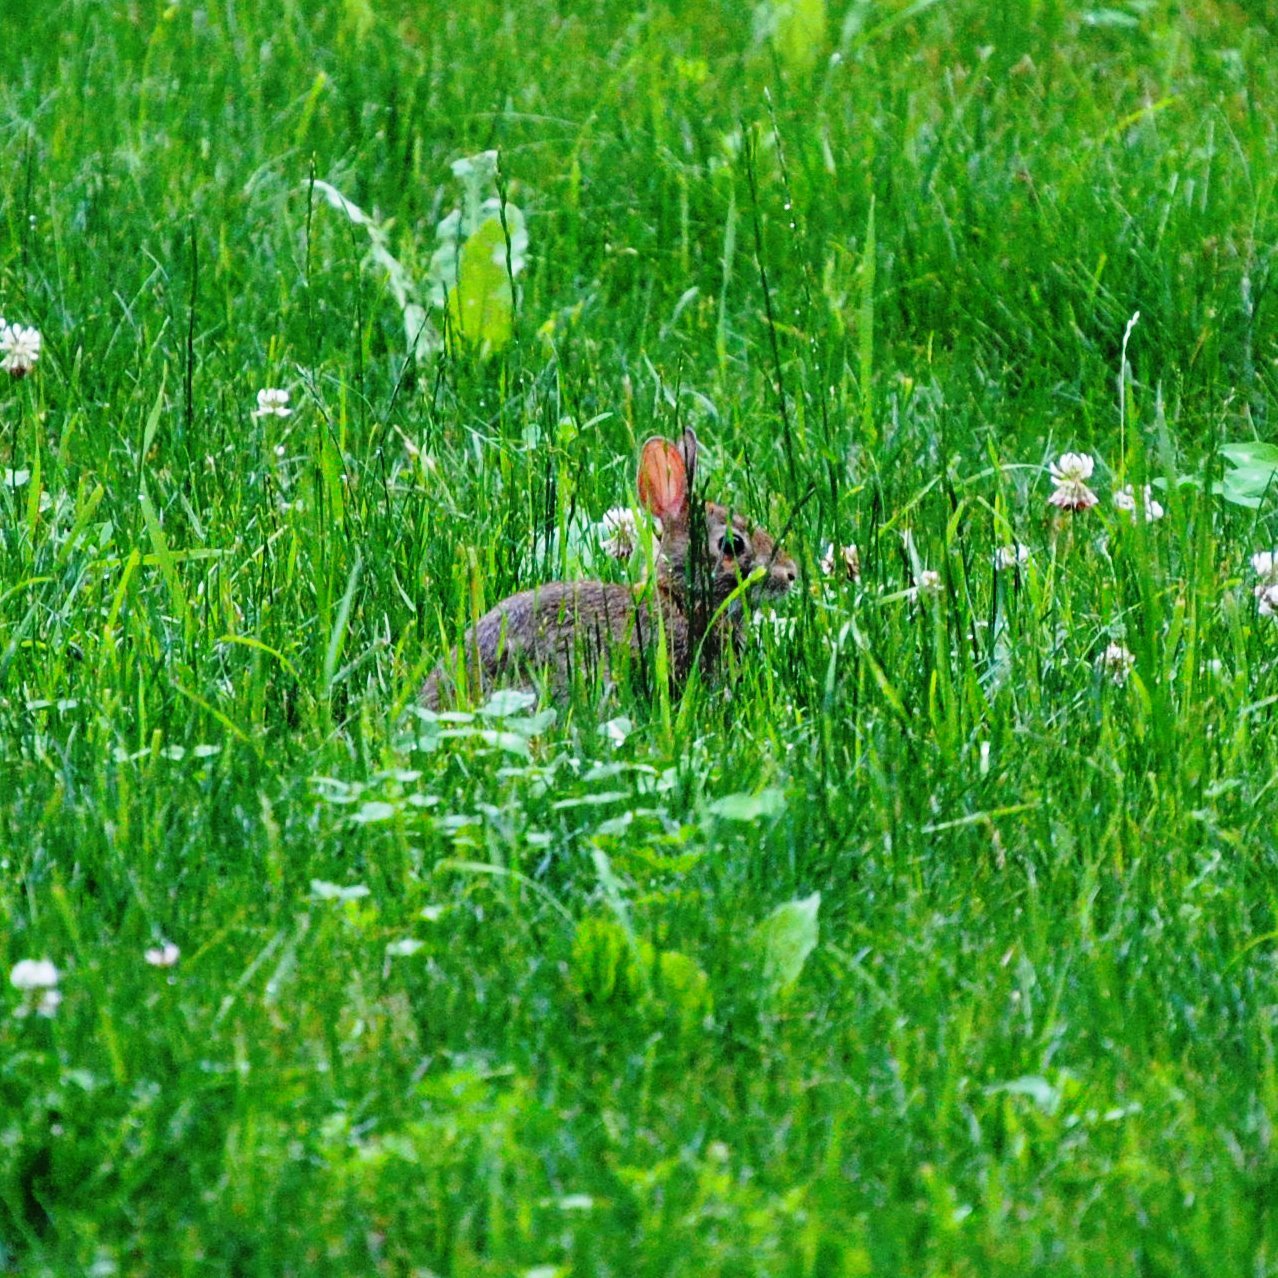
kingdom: Animalia
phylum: Chordata
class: Mammalia
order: Lagomorpha
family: Leporidae
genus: Sylvilagus
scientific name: Sylvilagus floridanus
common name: Eastern cottontail
